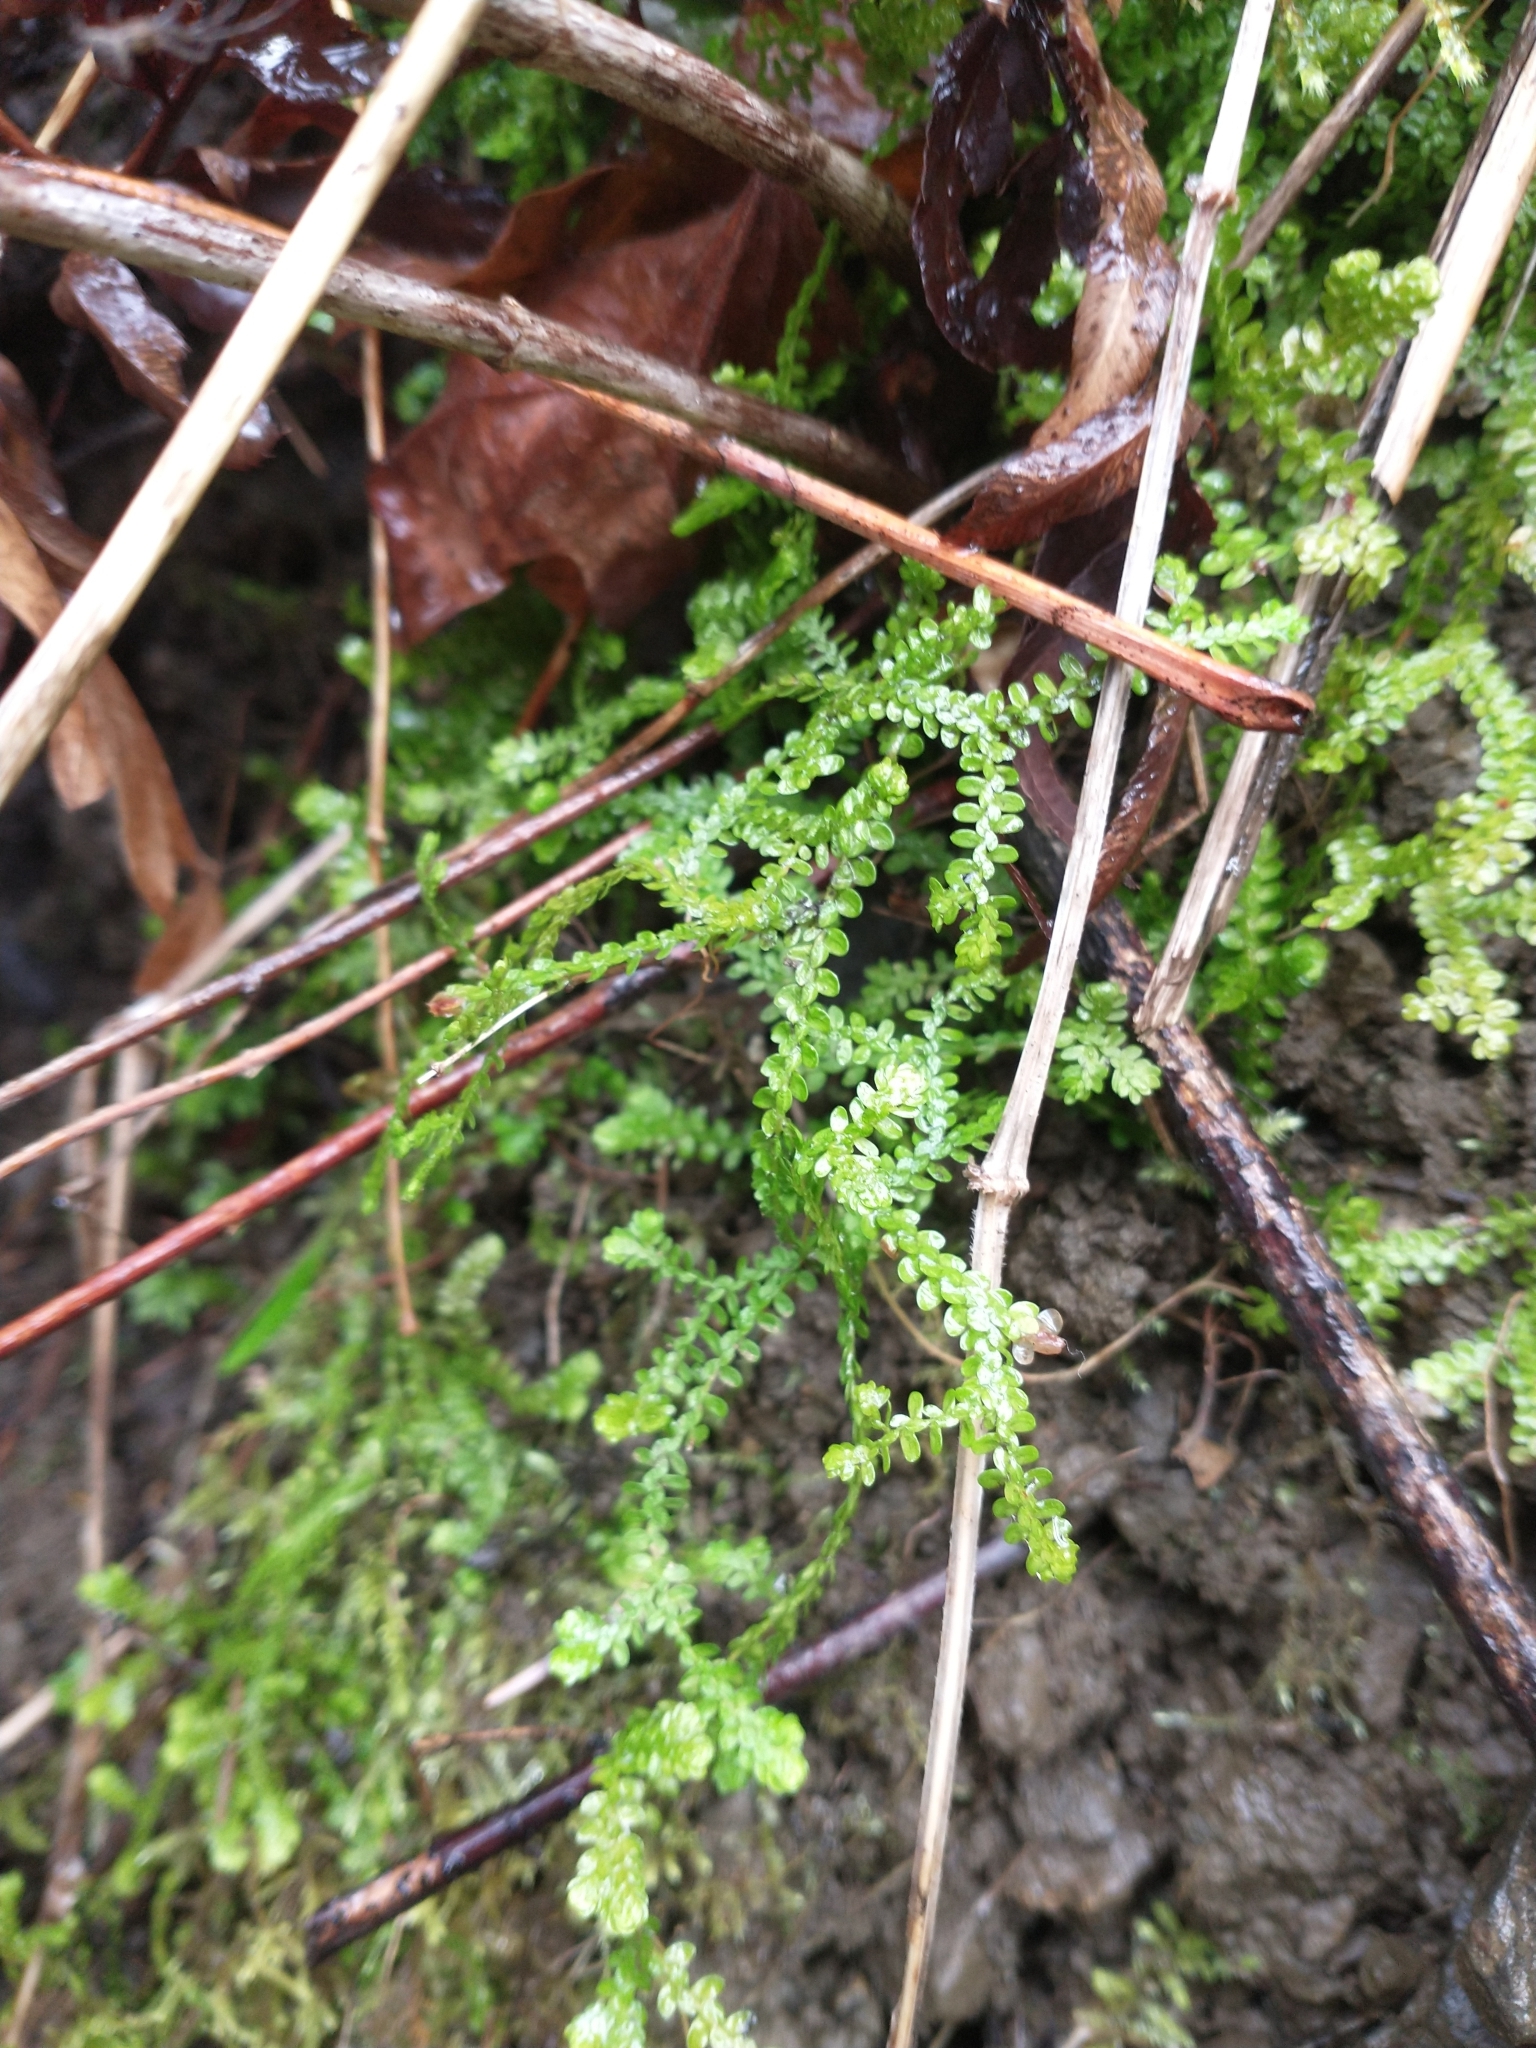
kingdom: Plantae
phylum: Tracheophyta
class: Lycopodiopsida
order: Selaginellales
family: Selaginellaceae
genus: Selaginella
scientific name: Selaginella douglasii
